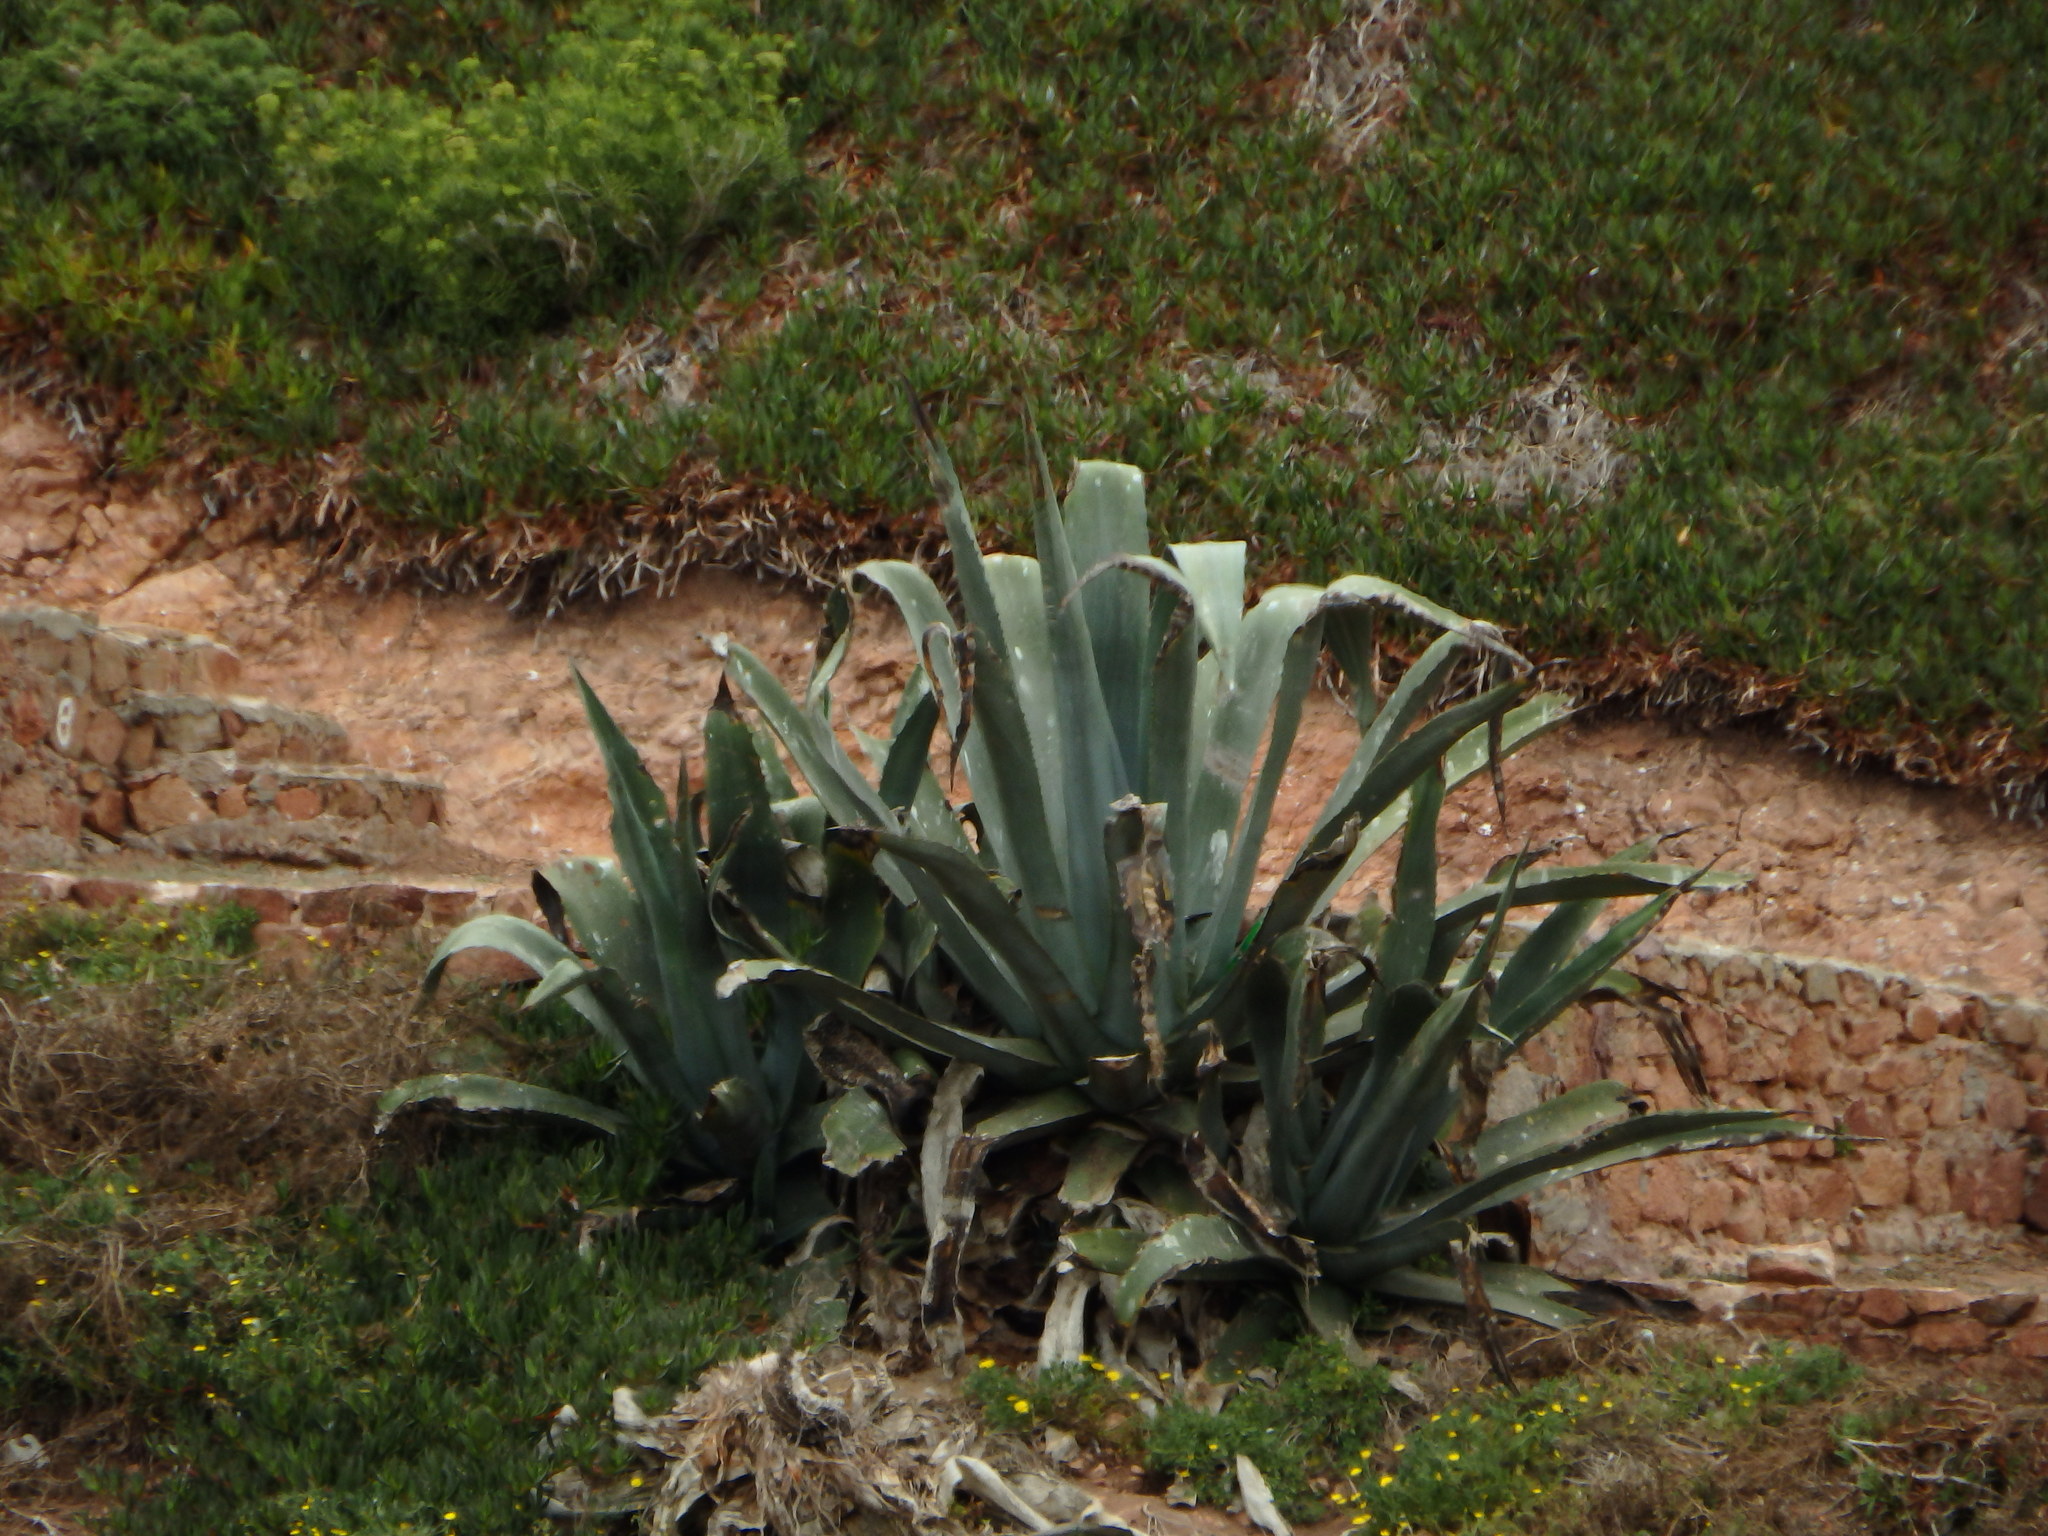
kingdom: Plantae
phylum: Tracheophyta
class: Liliopsida
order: Asparagales
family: Asparagaceae
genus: Agave
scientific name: Agave americana
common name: Centuryplant
